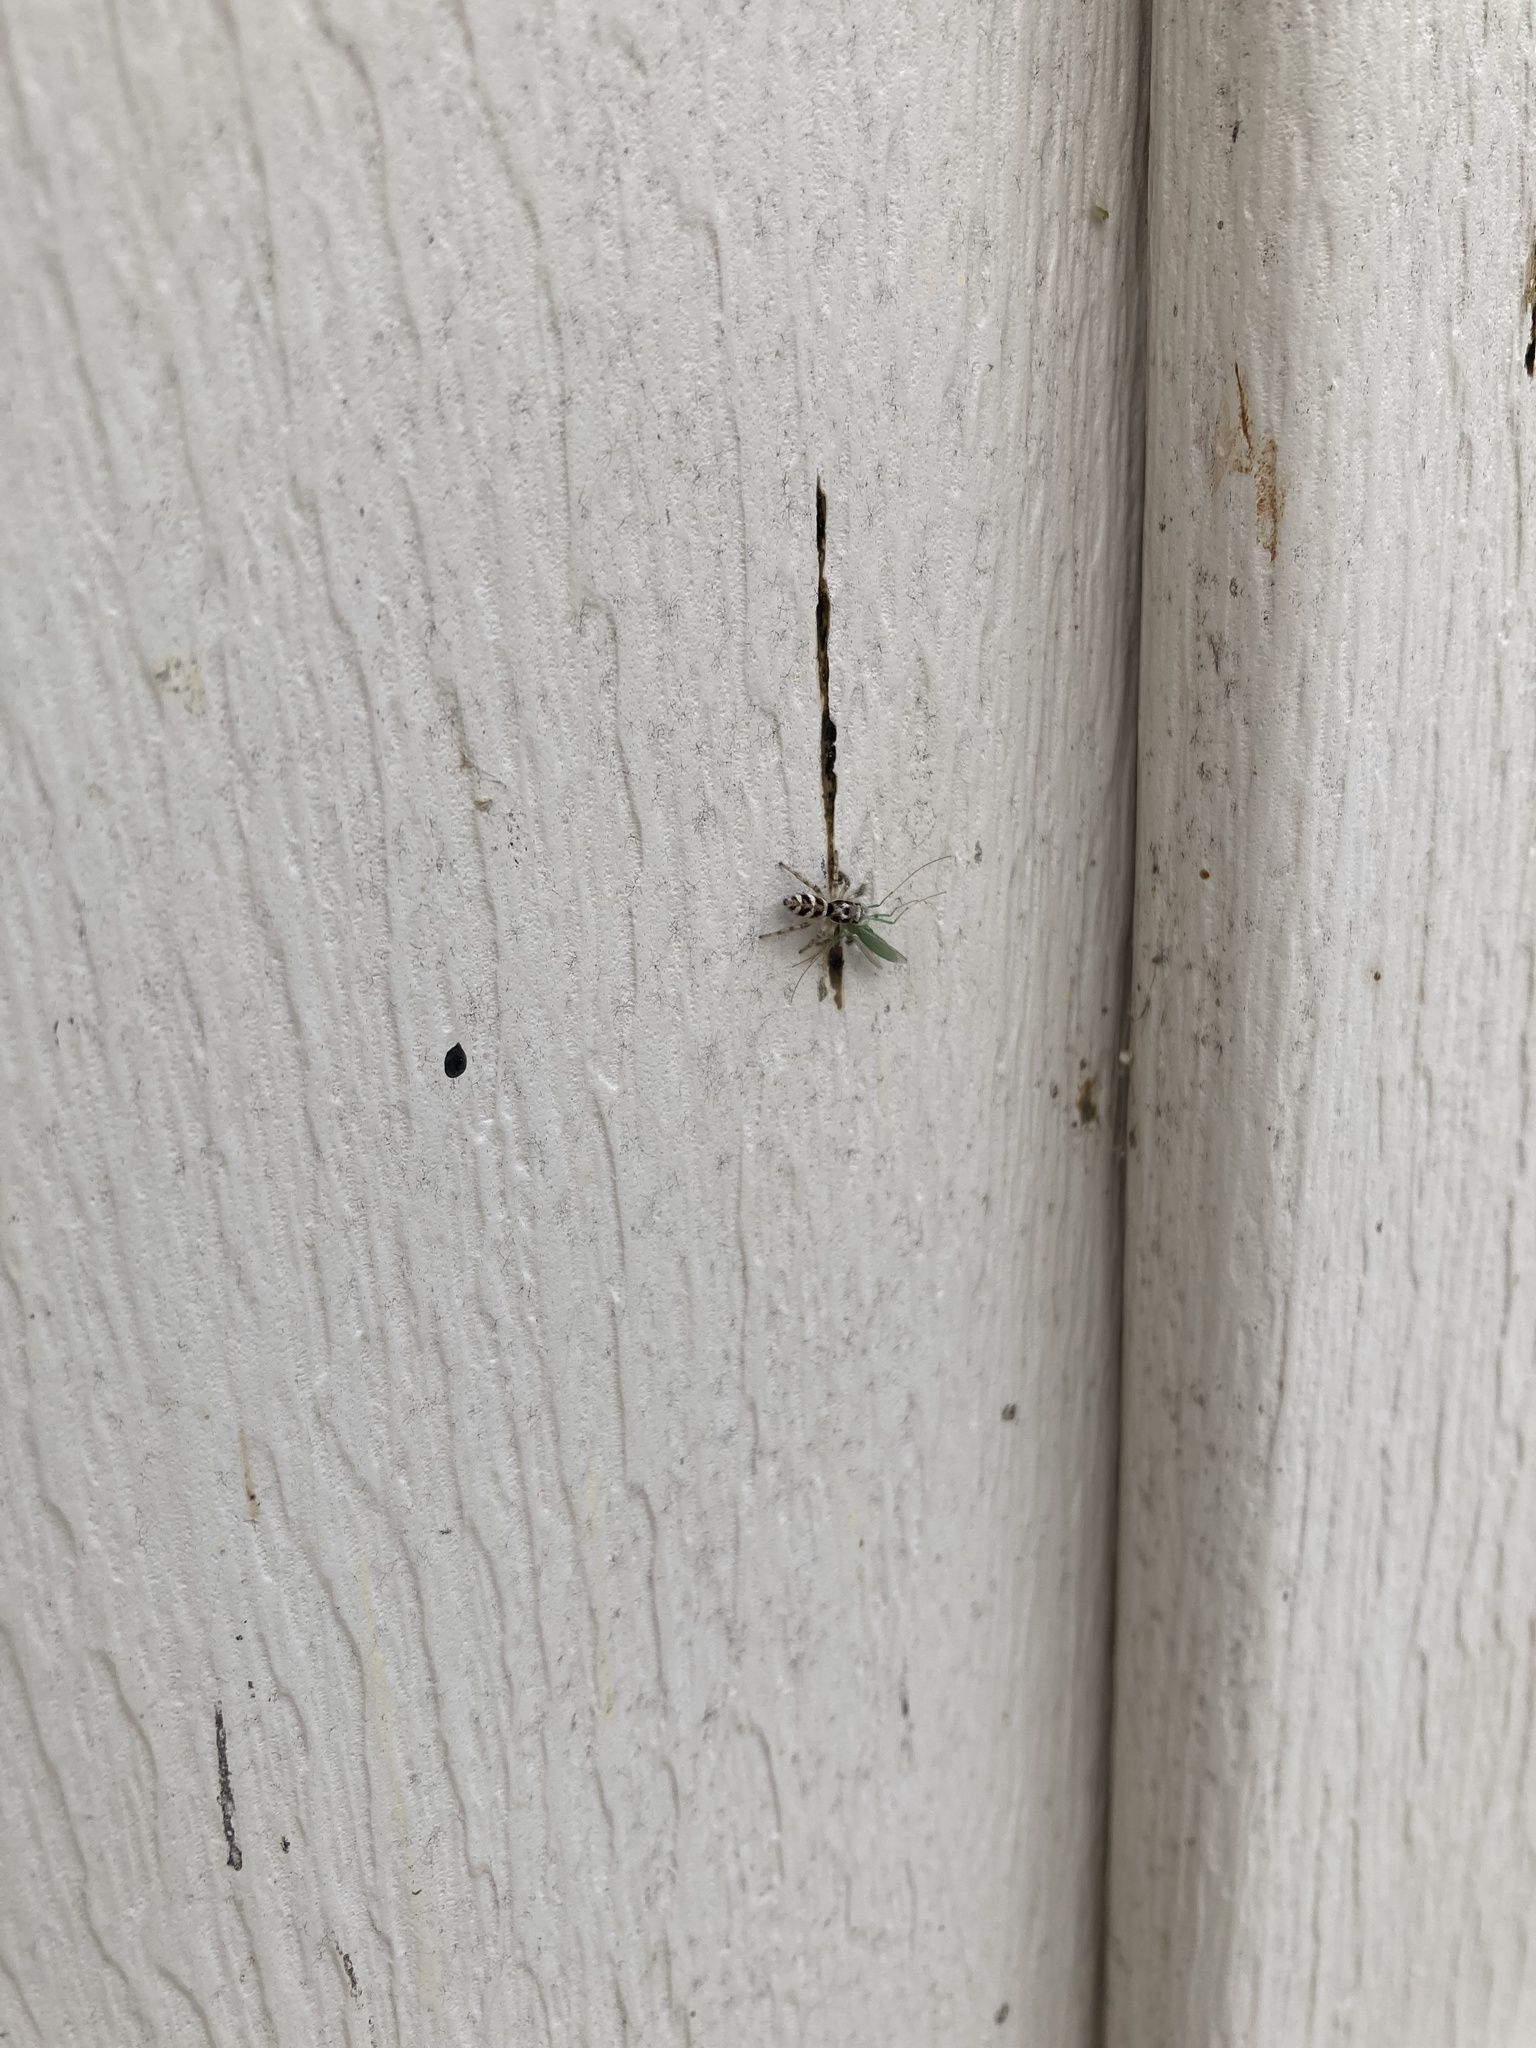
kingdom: Animalia
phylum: Arthropoda
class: Arachnida
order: Araneae
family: Salticidae
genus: Salticus
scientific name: Salticus scenicus
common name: Zebra jumper
